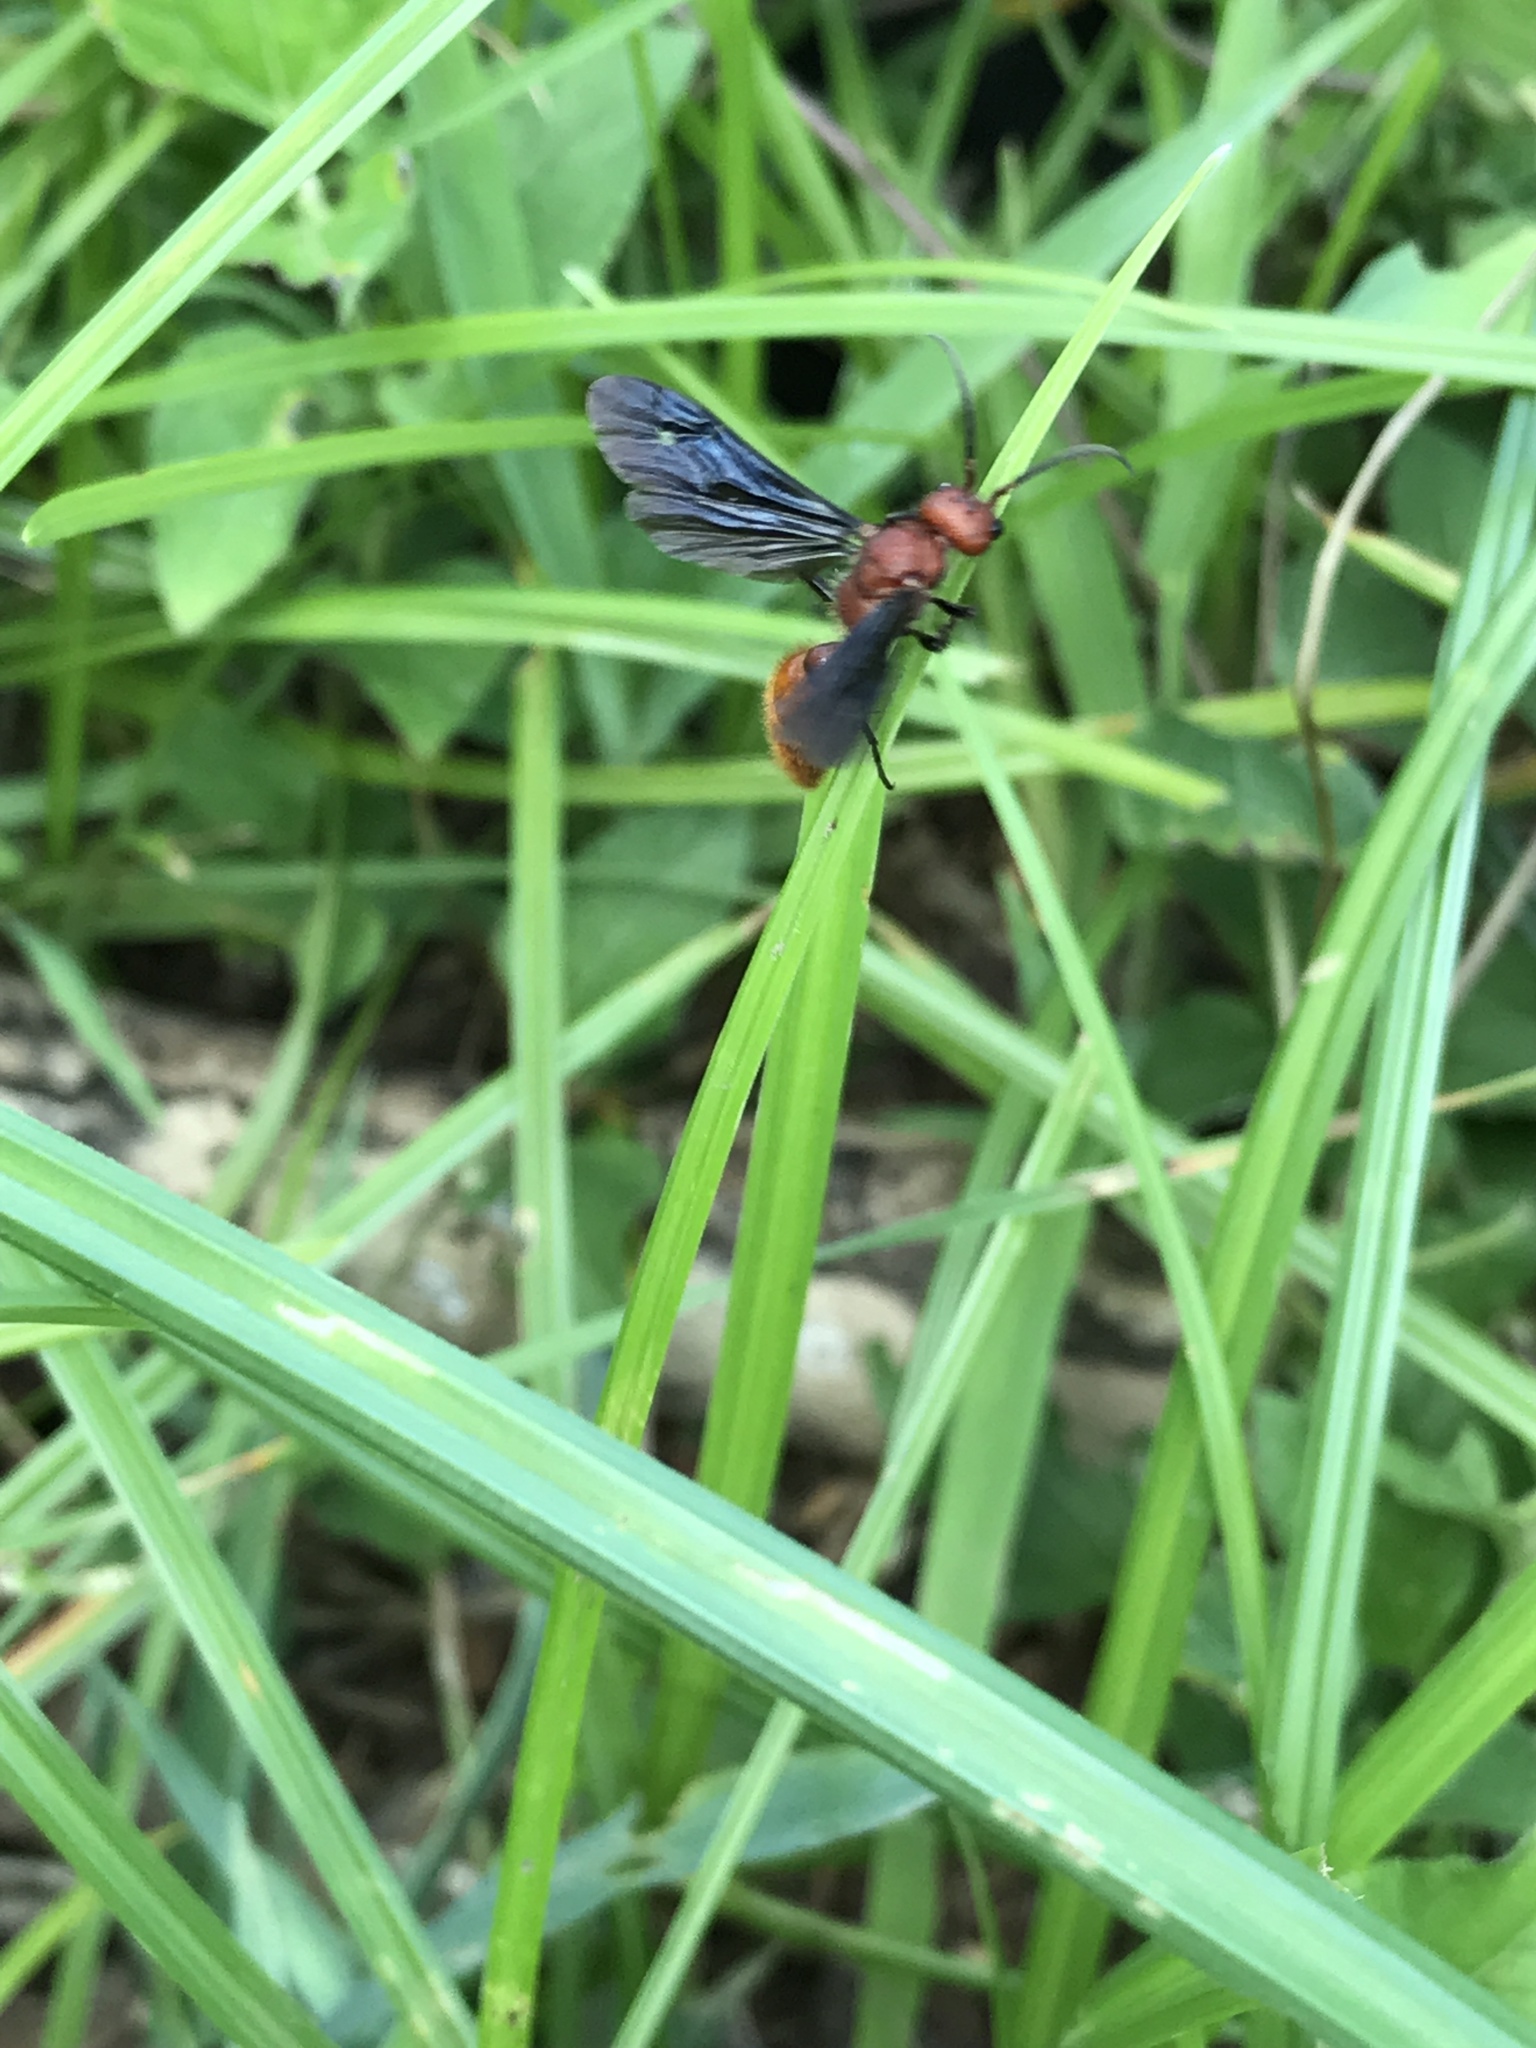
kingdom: Animalia
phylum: Arthropoda
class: Insecta
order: Hymenoptera
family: Mutillidae
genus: Sphaeropthalma
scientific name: Sphaeropthalma
